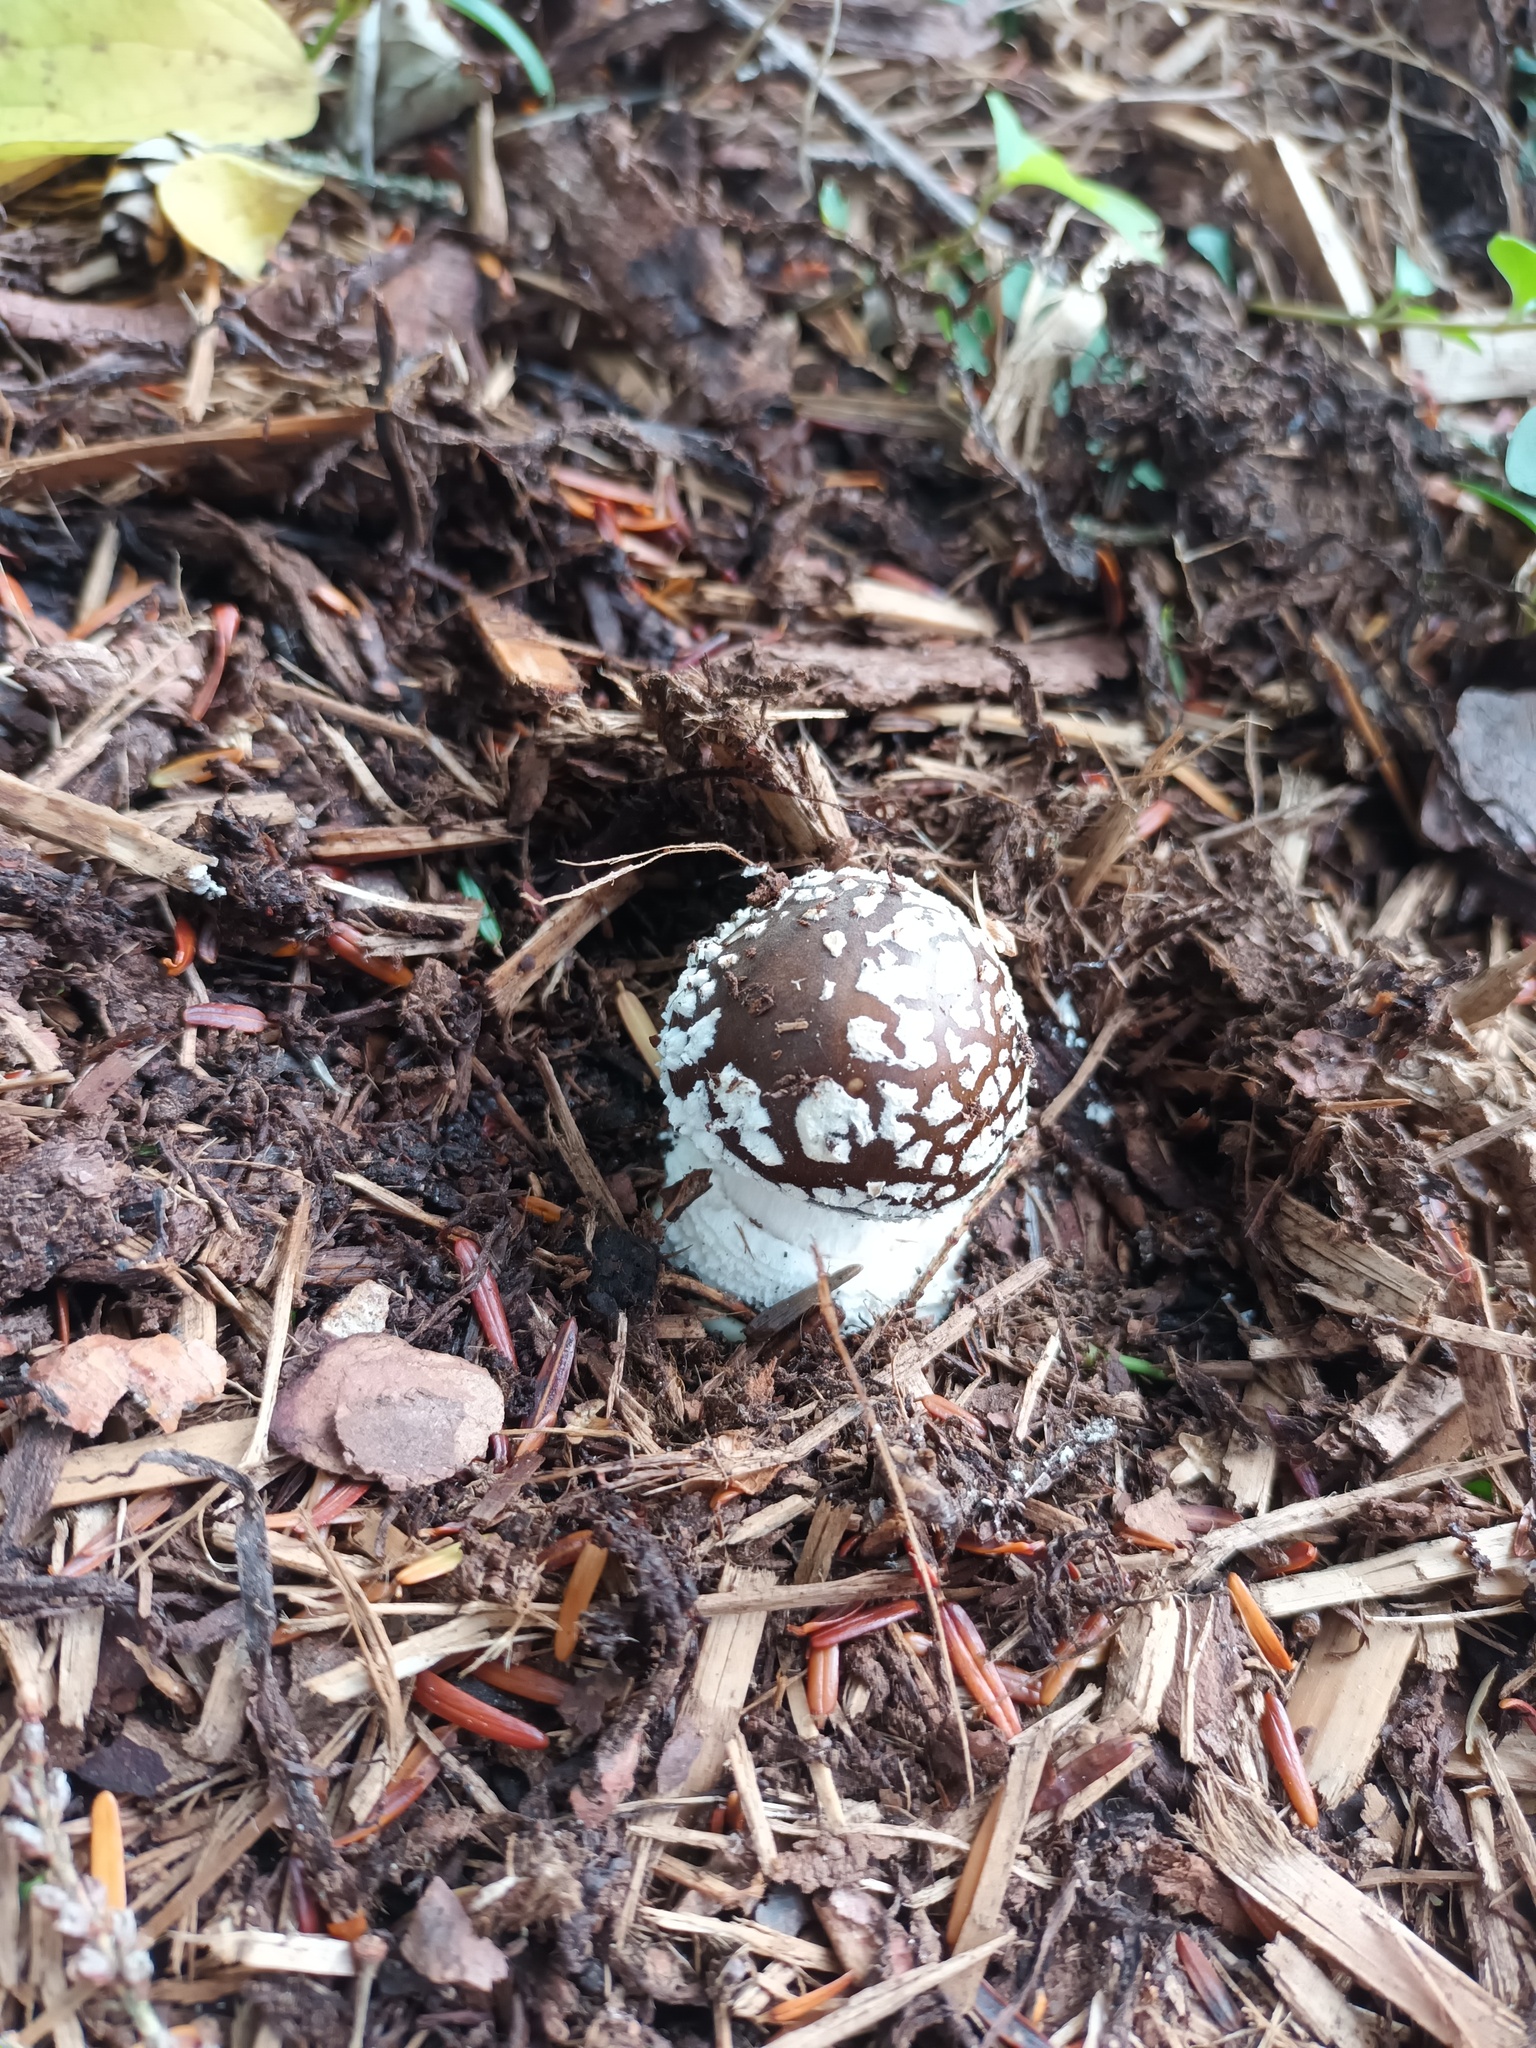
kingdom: Fungi
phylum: Basidiomycota
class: Agaricomycetes
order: Agaricales
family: Amanitaceae
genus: Amanita
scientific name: Amanita pantherina
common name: Panthercap
